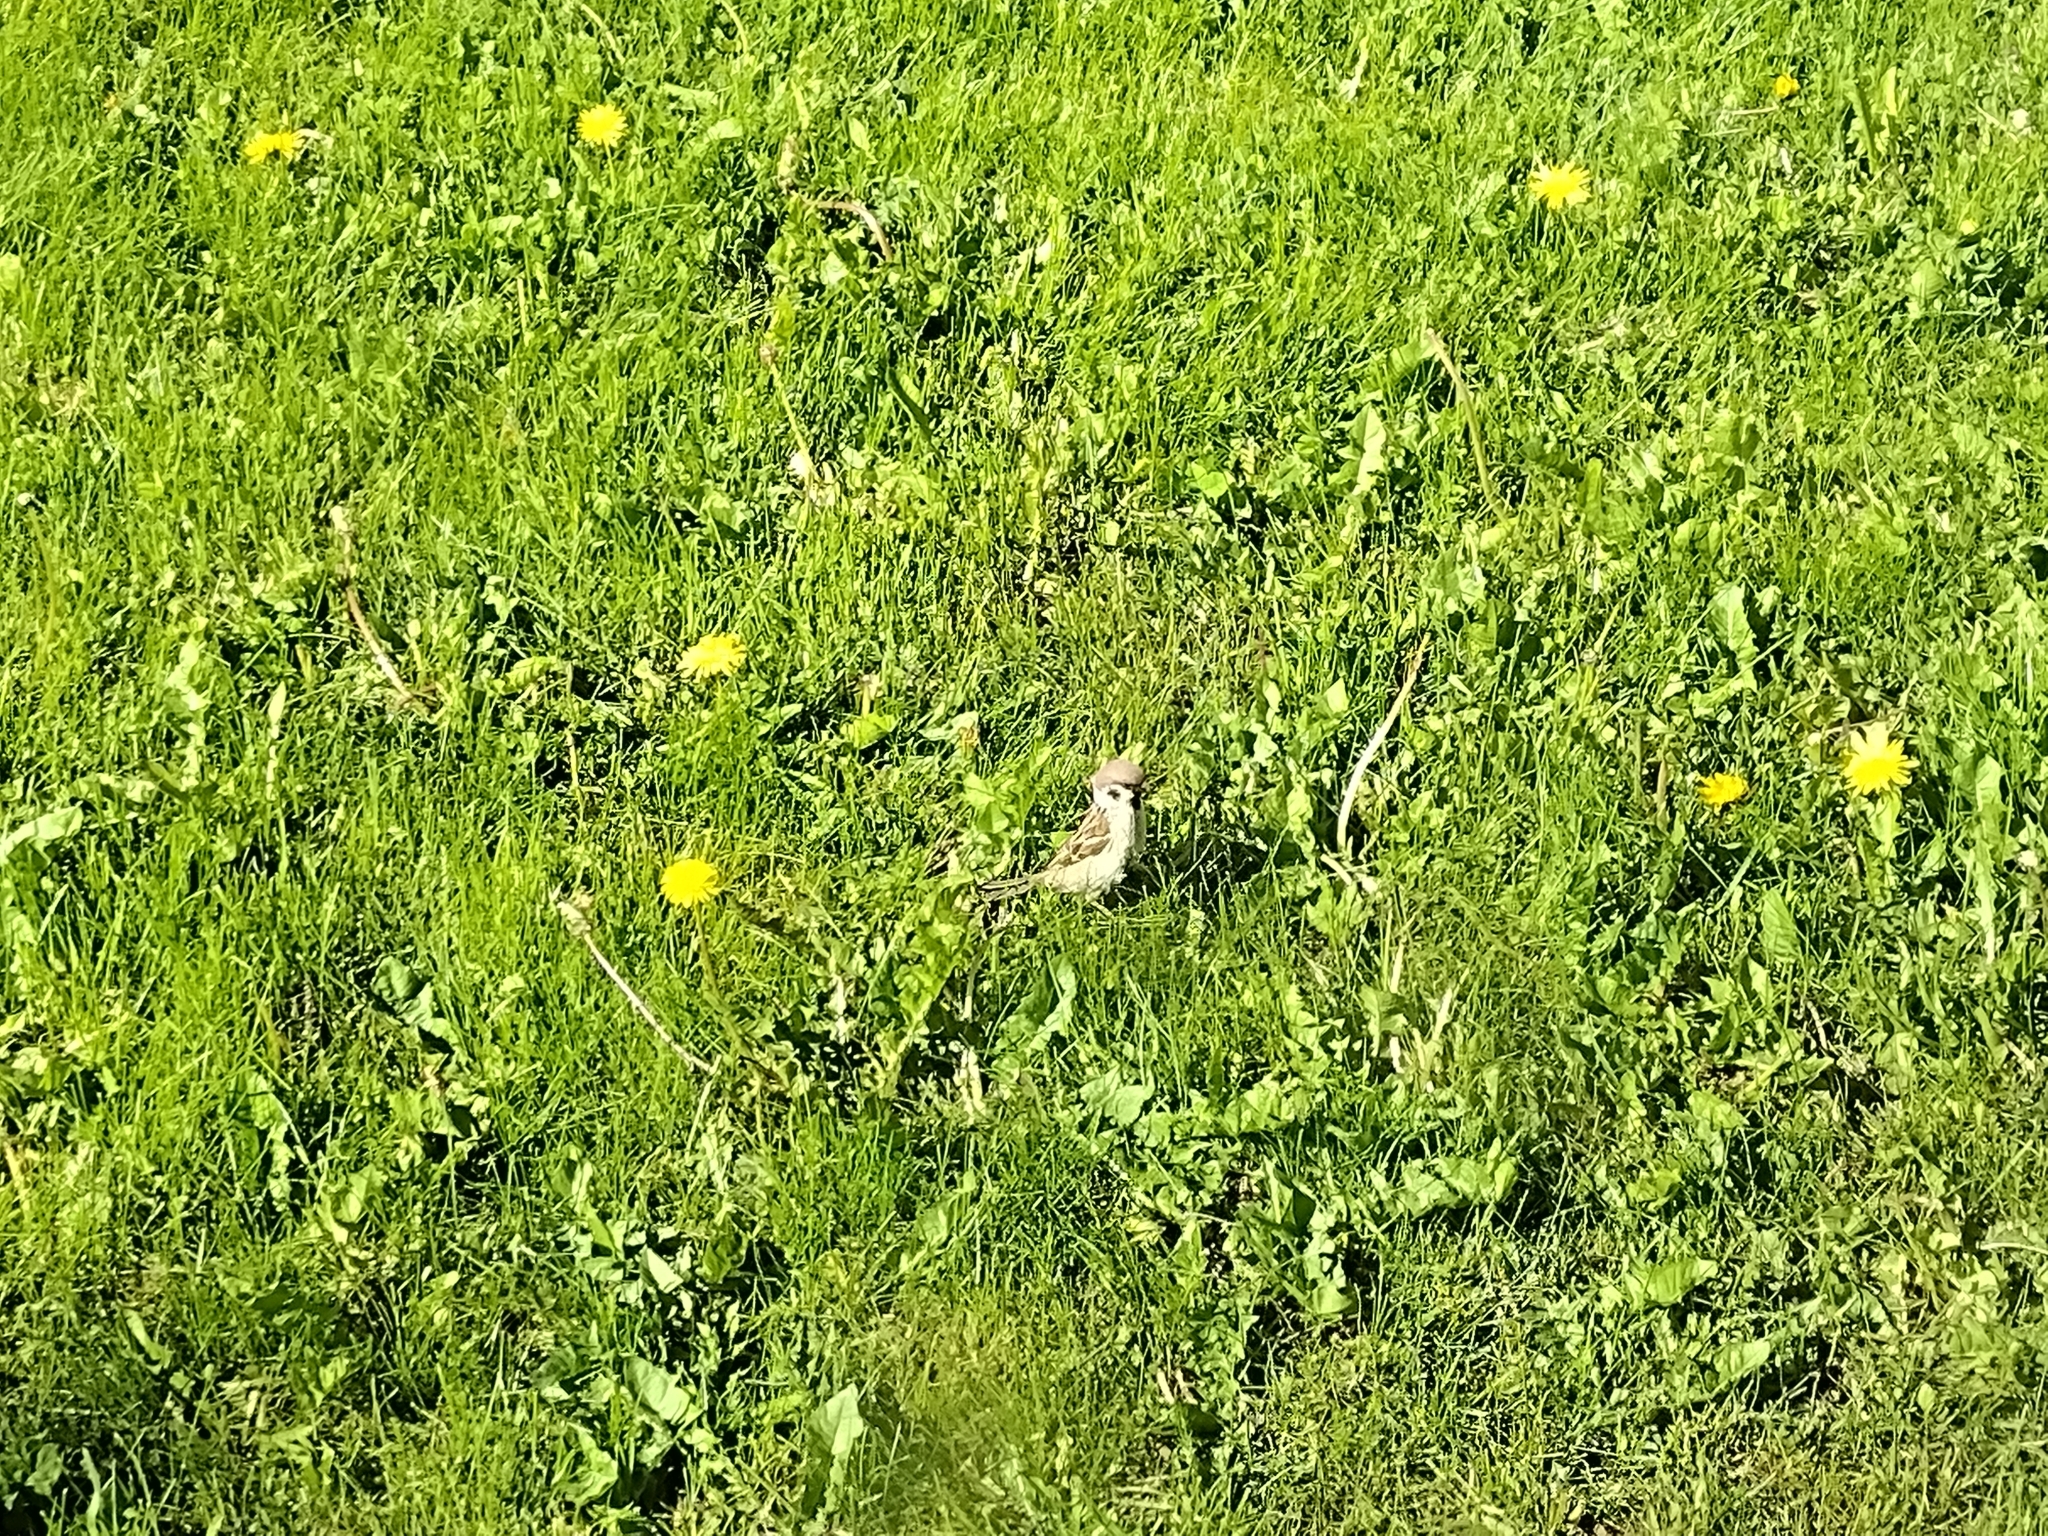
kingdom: Animalia
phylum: Chordata
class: Aves
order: Passeriformes
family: Passeridae
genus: Passer
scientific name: Passer montanus
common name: Eurasian tree sparrow
